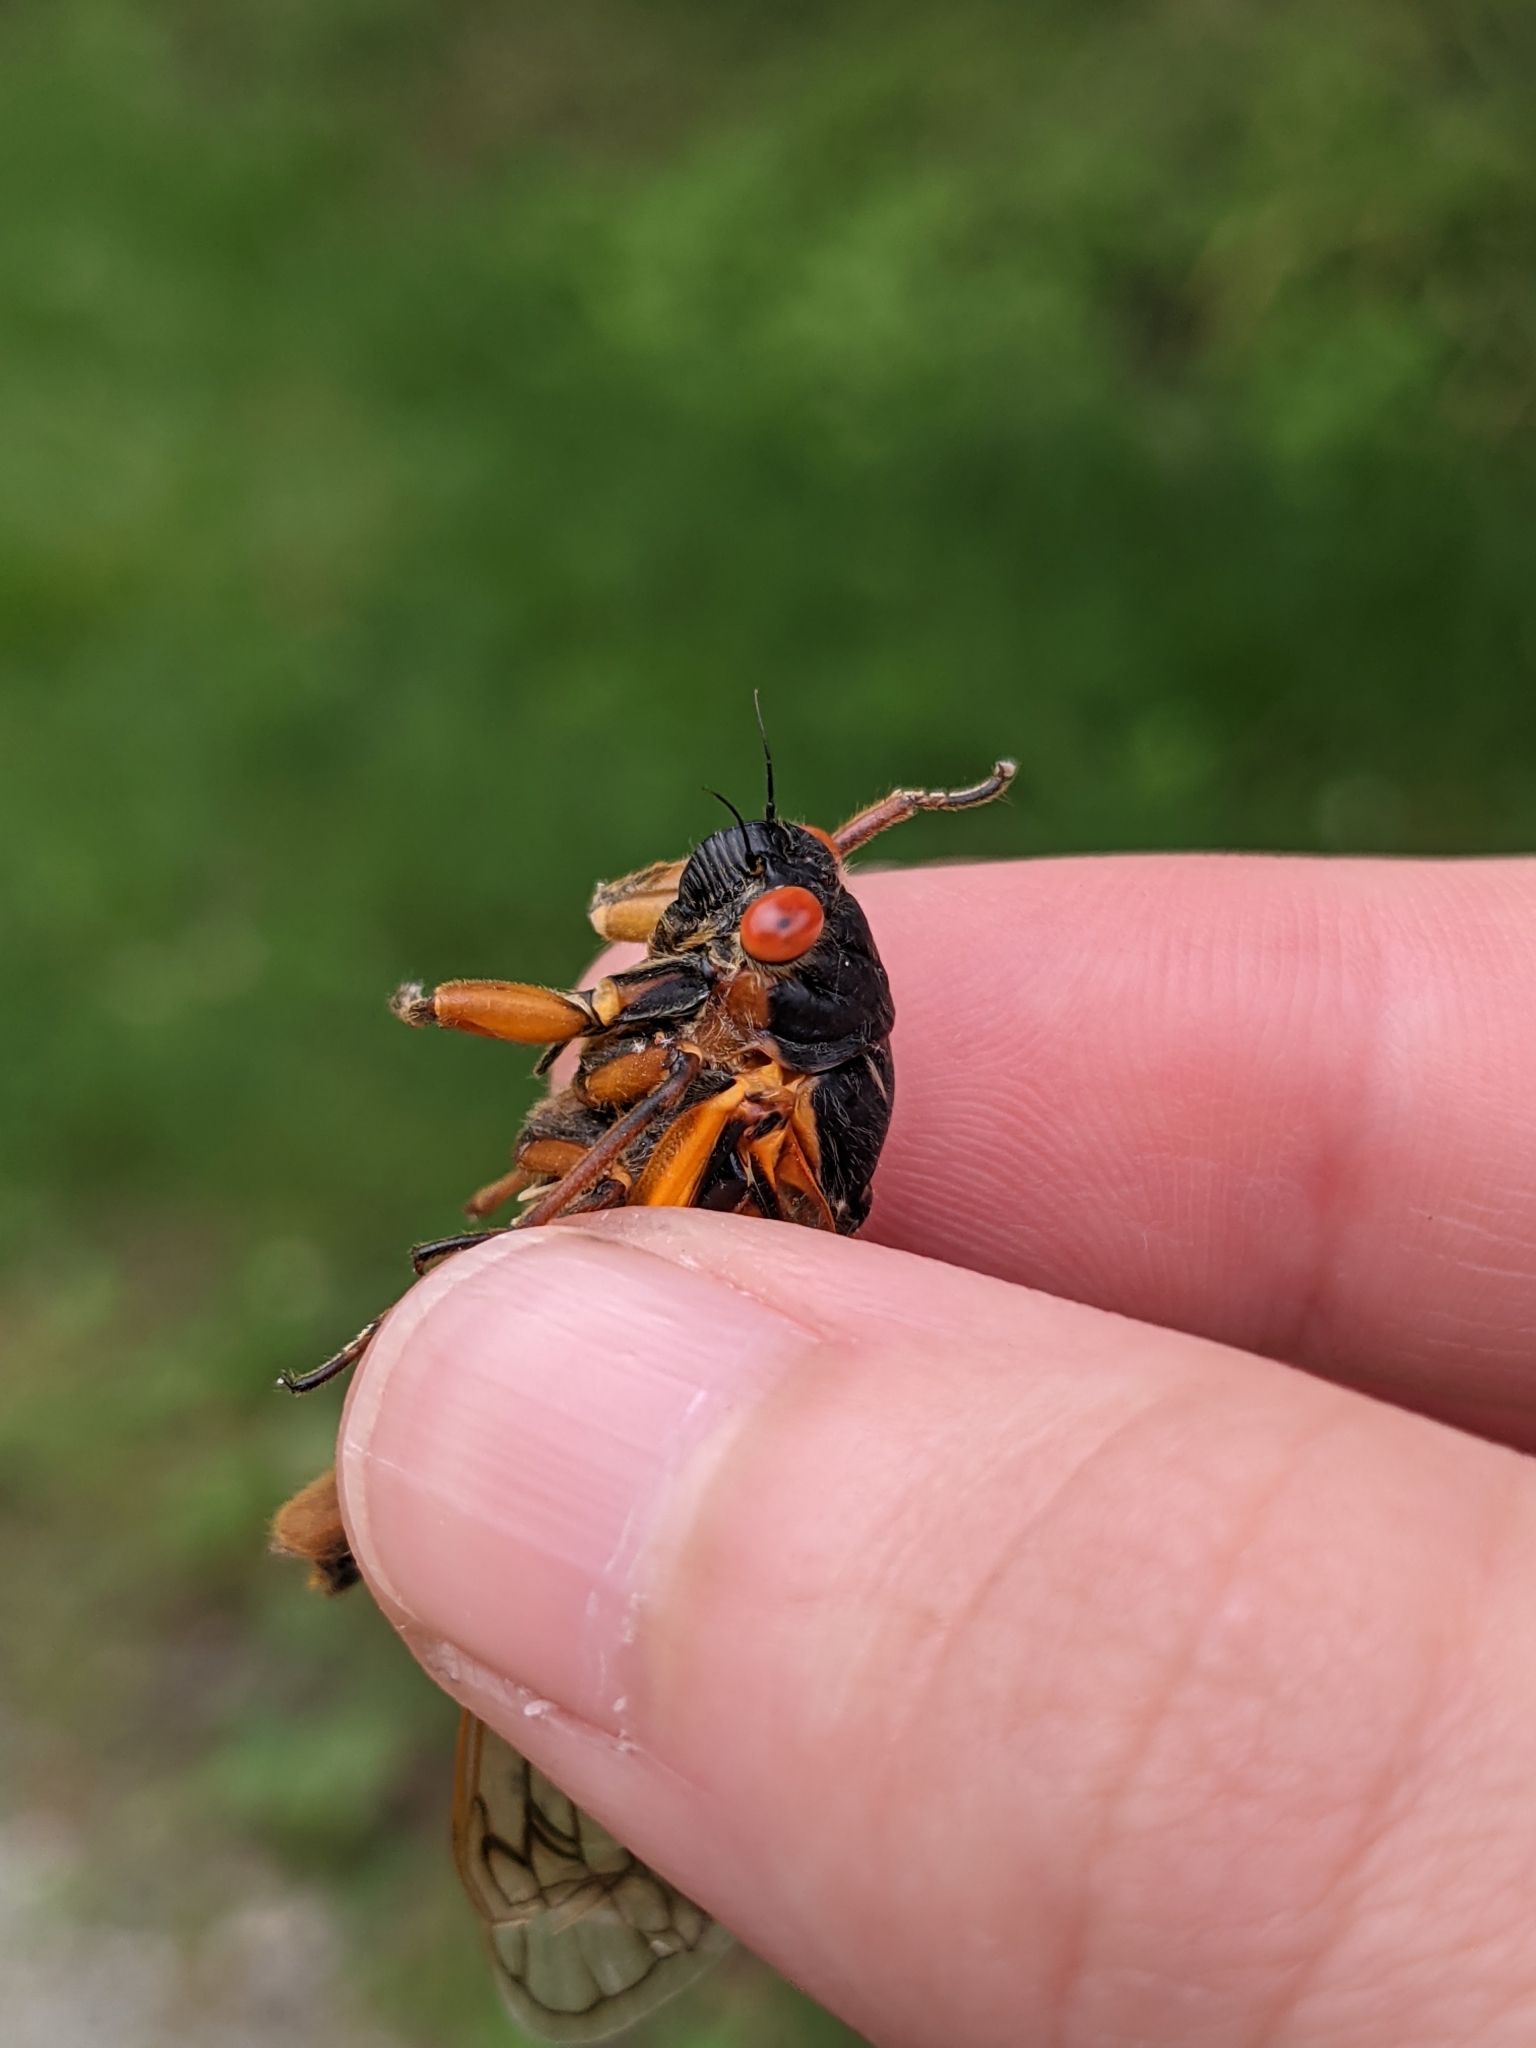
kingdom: Animalia
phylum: Arthropoda
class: Insecta
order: Hemiptera
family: Cicadidae
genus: Magicicada
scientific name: Magicicada septendecim
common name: Periodical cicada
